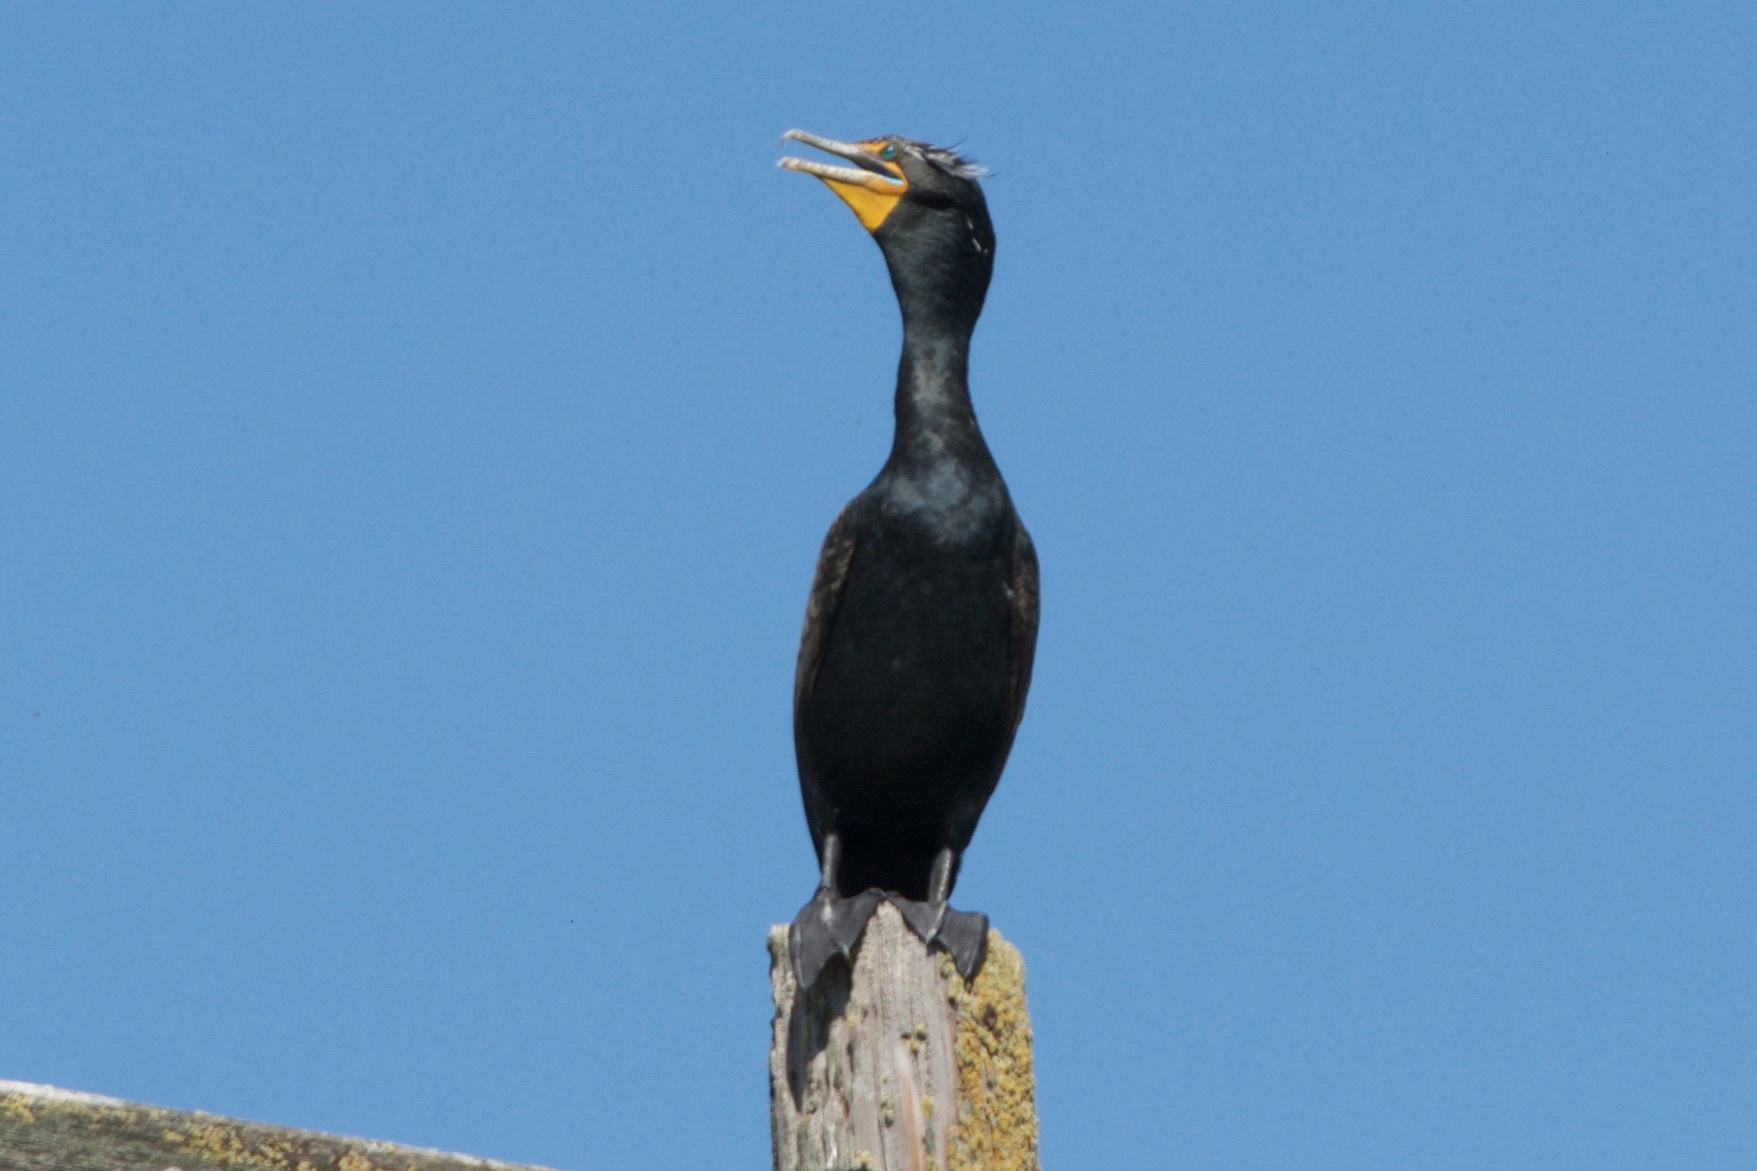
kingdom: Animalia
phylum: Chordata
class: Aves
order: Suliformes
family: Phalacrocoracidae
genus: Phalacrocorax
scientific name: Phalacrocorax auritus
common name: Double-crested cormorant
